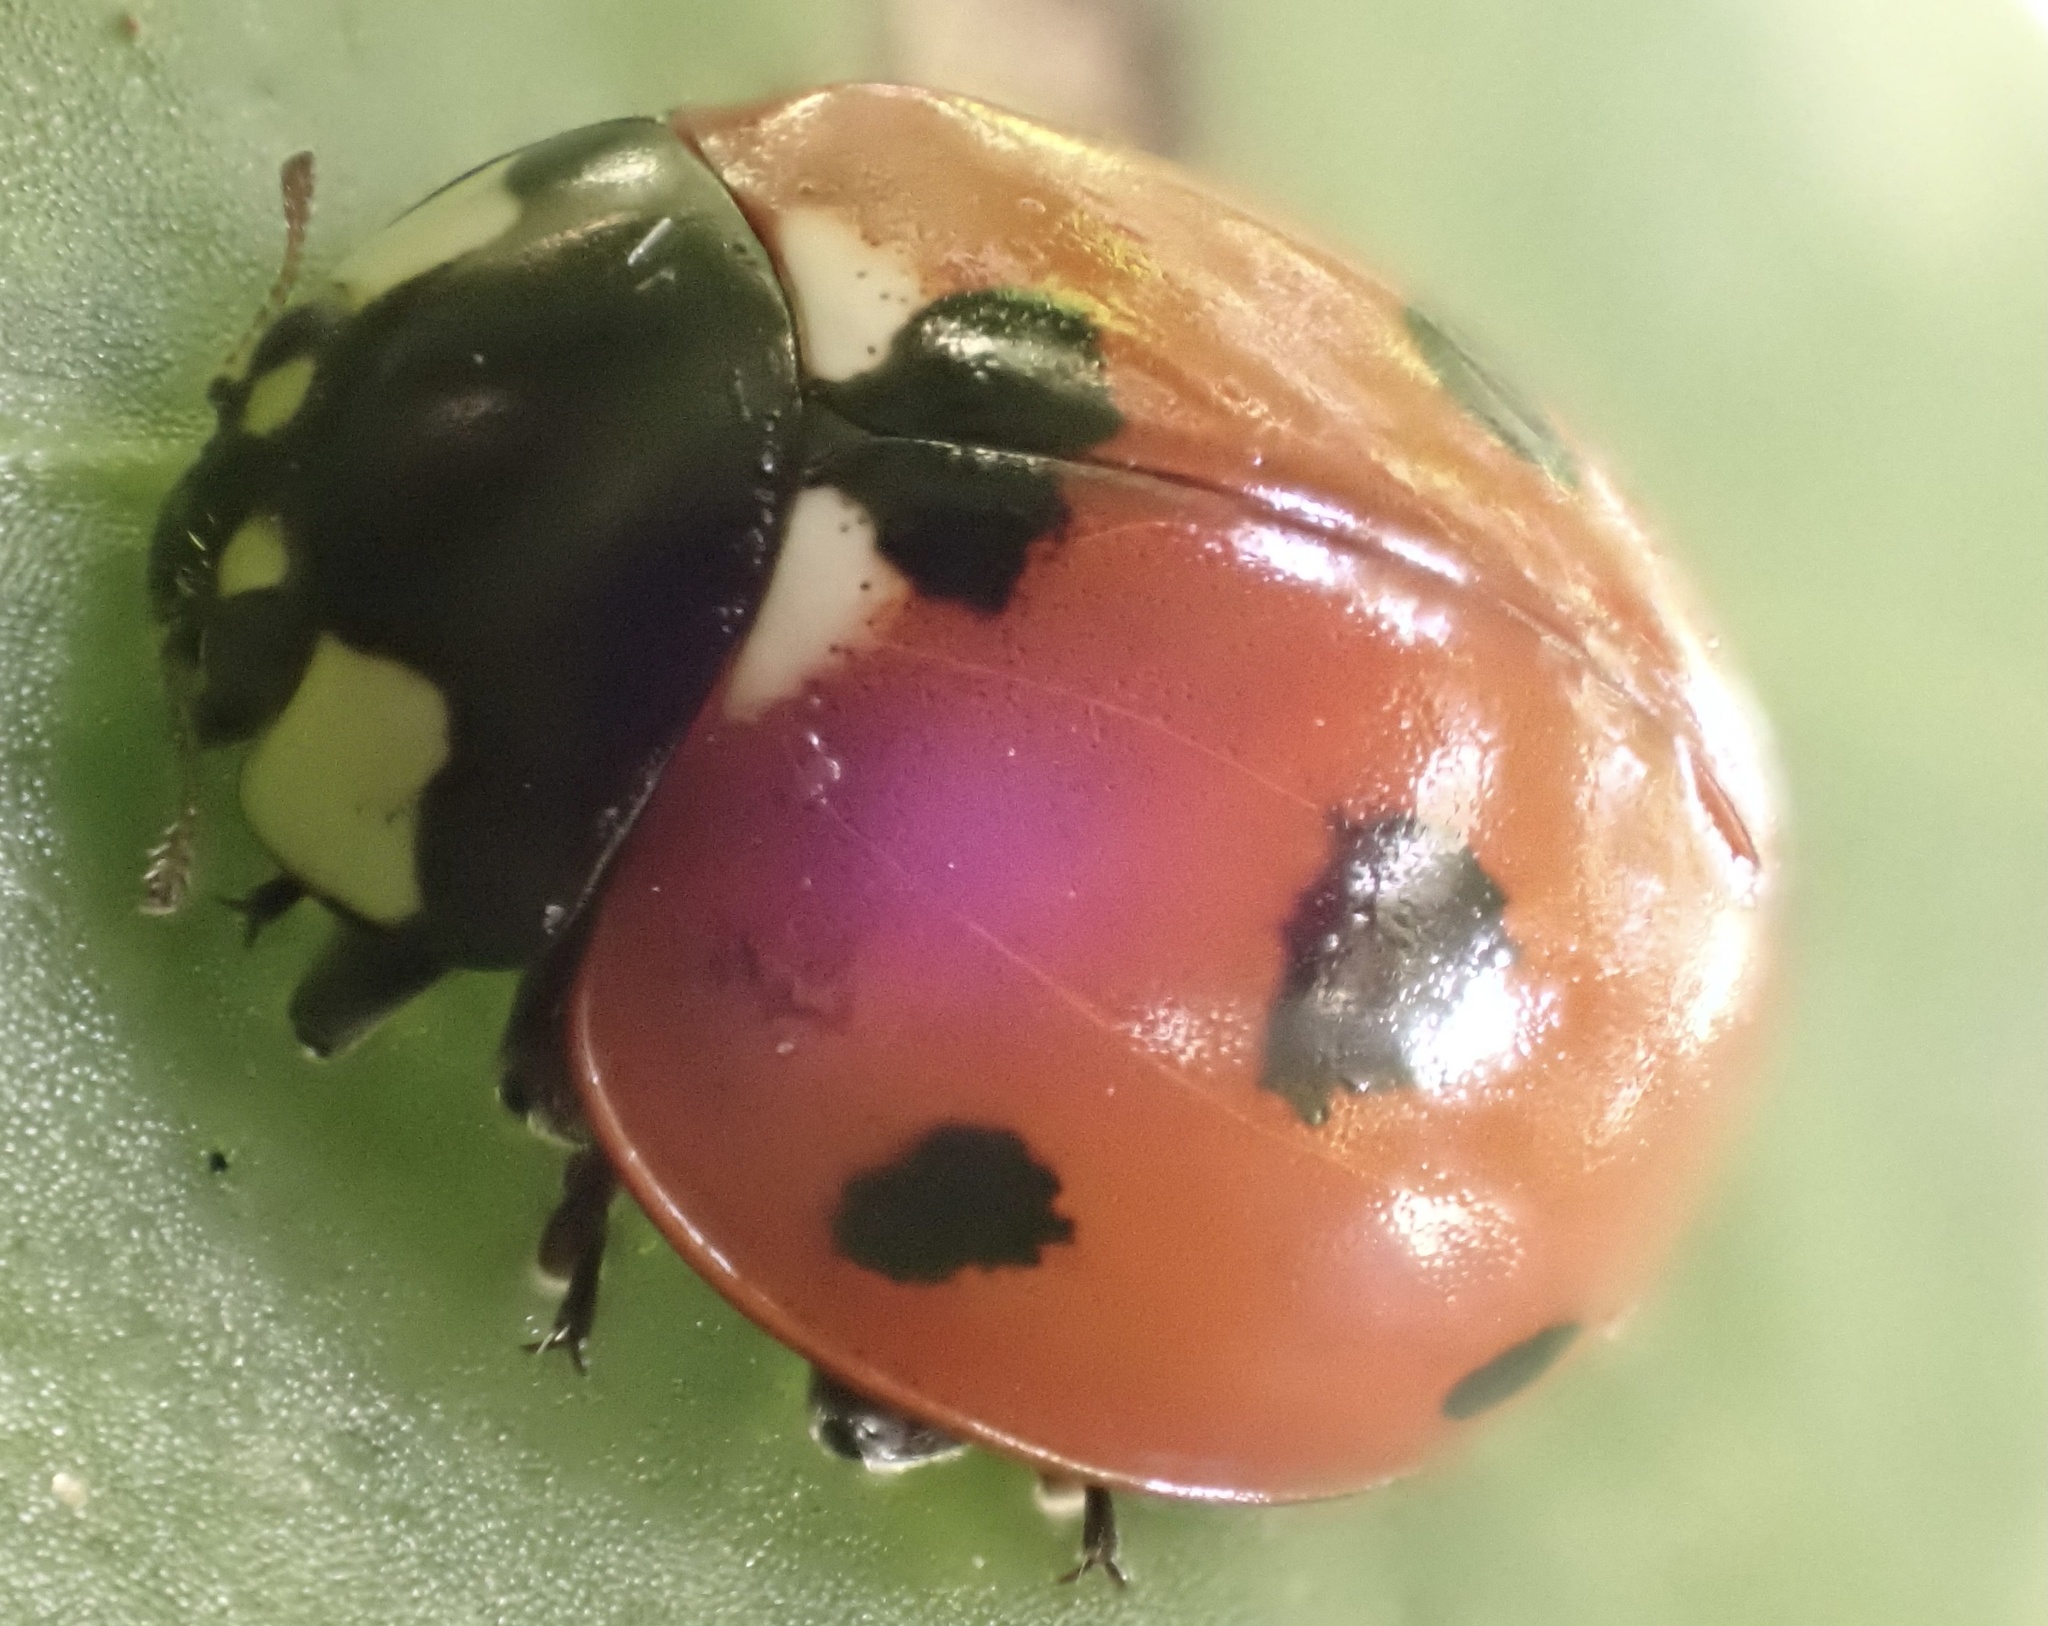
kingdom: Animalia
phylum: Arthropoda
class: Insecta
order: Coleoptera
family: Coccinellidae
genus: Coccinella
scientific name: Coccinella septempunctata
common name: Sevenspotted lady beetle
